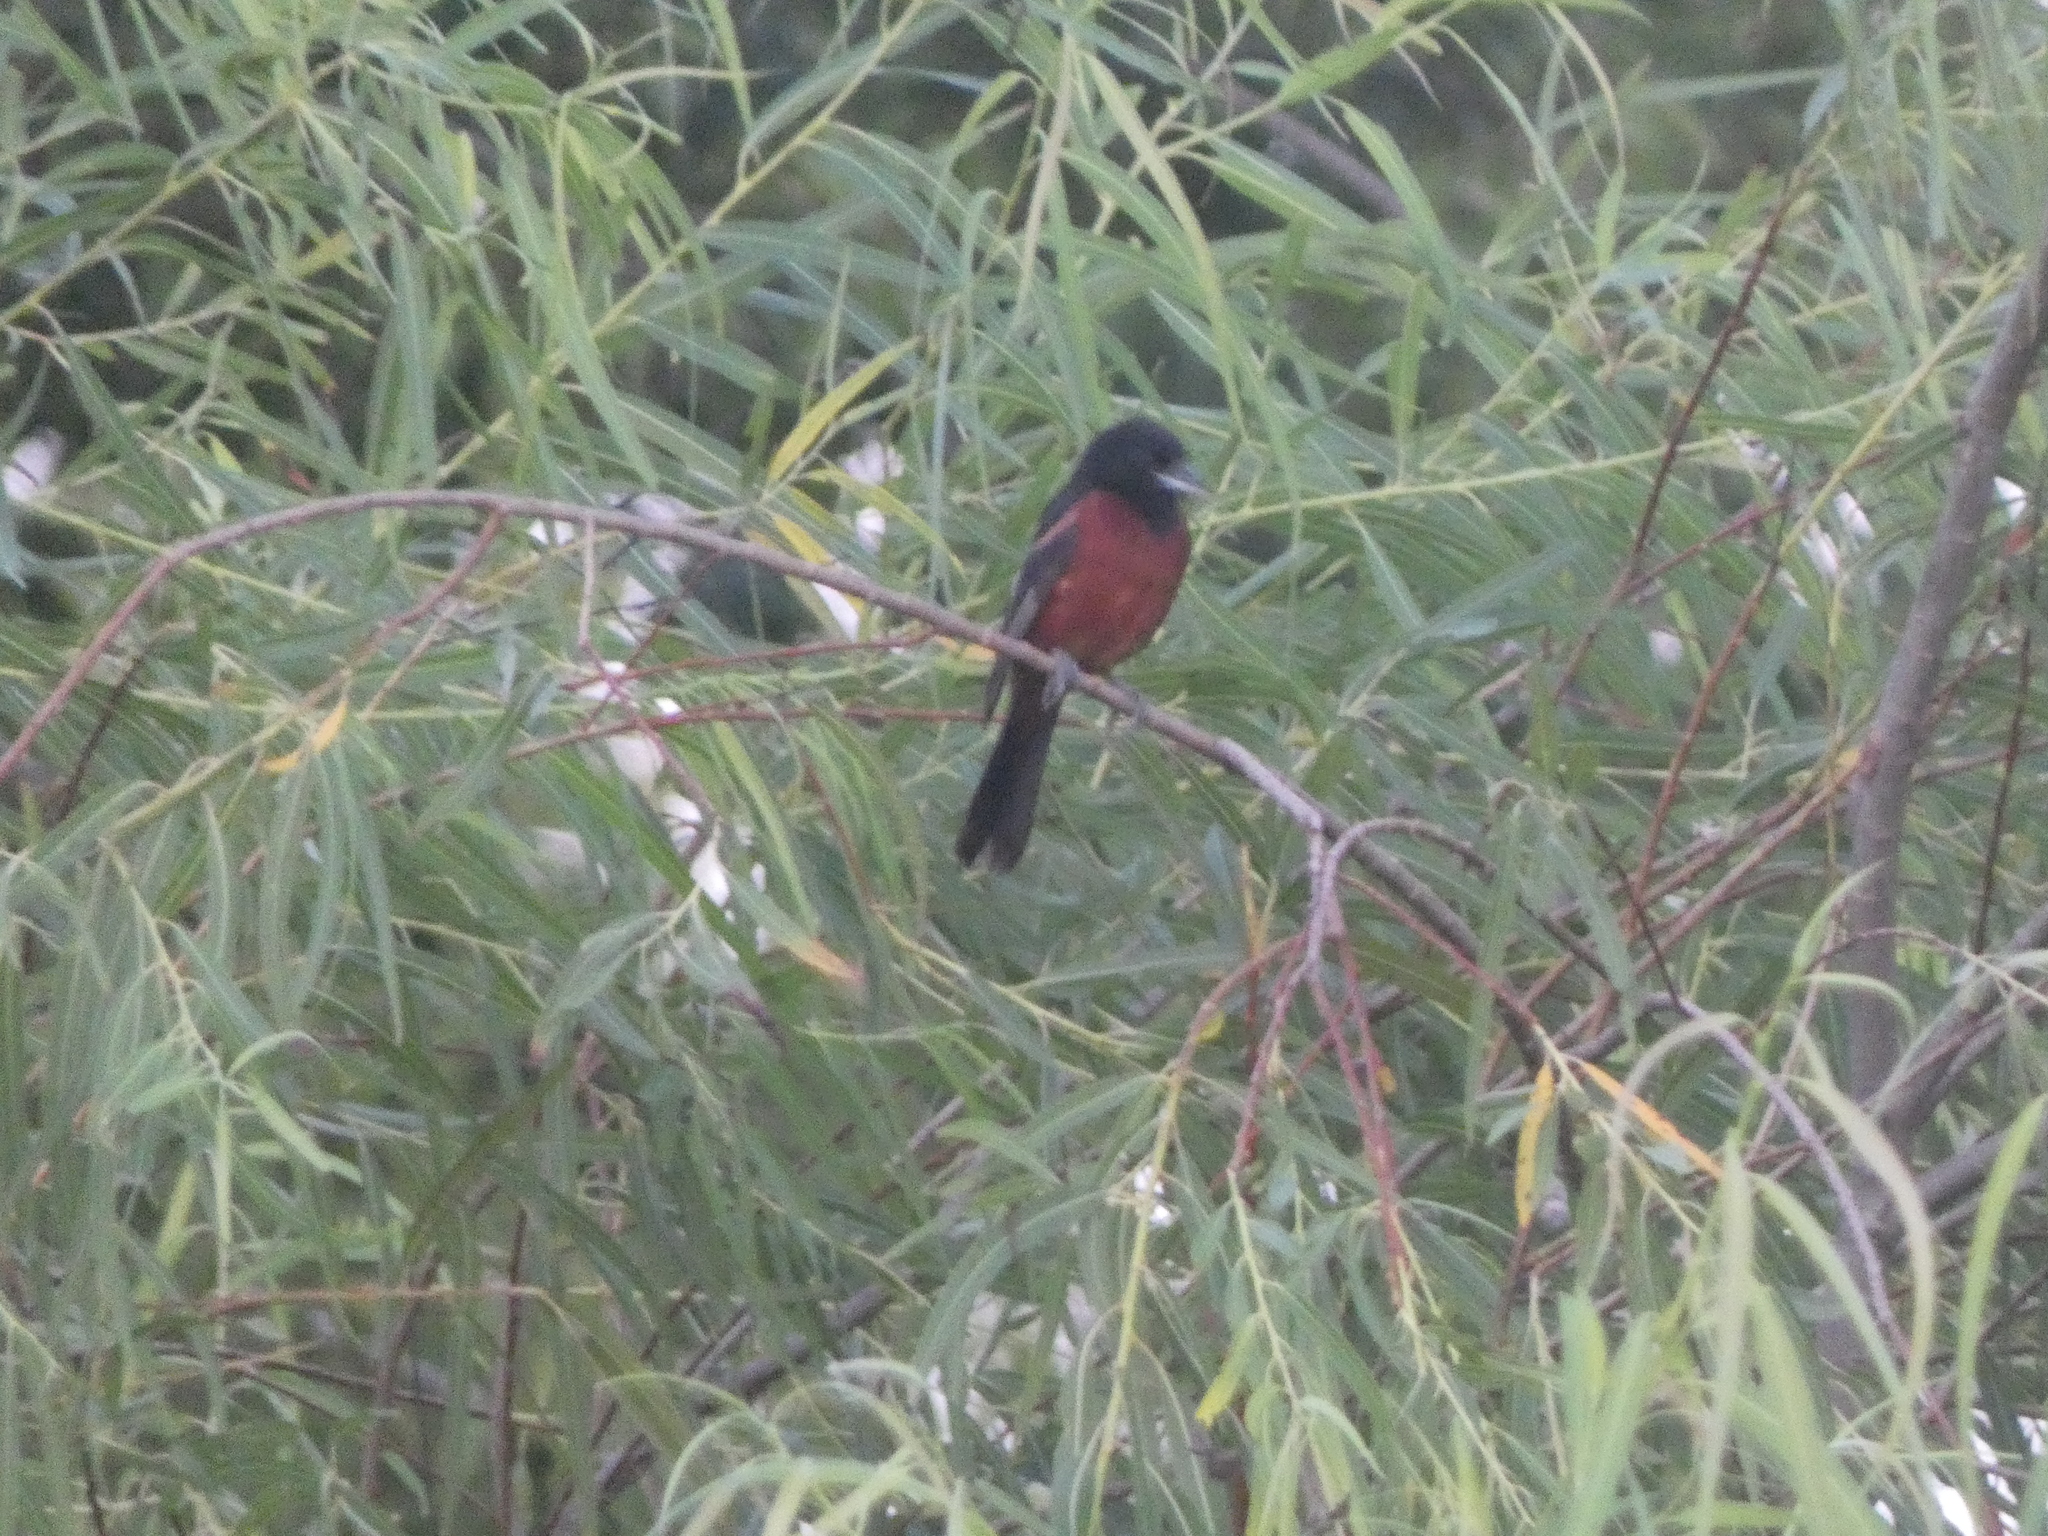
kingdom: Animalia
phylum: Chordata
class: Aves
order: Passeriformes
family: Icteridae
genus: Icterus
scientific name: Icterus spurius
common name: Orchard oriole
